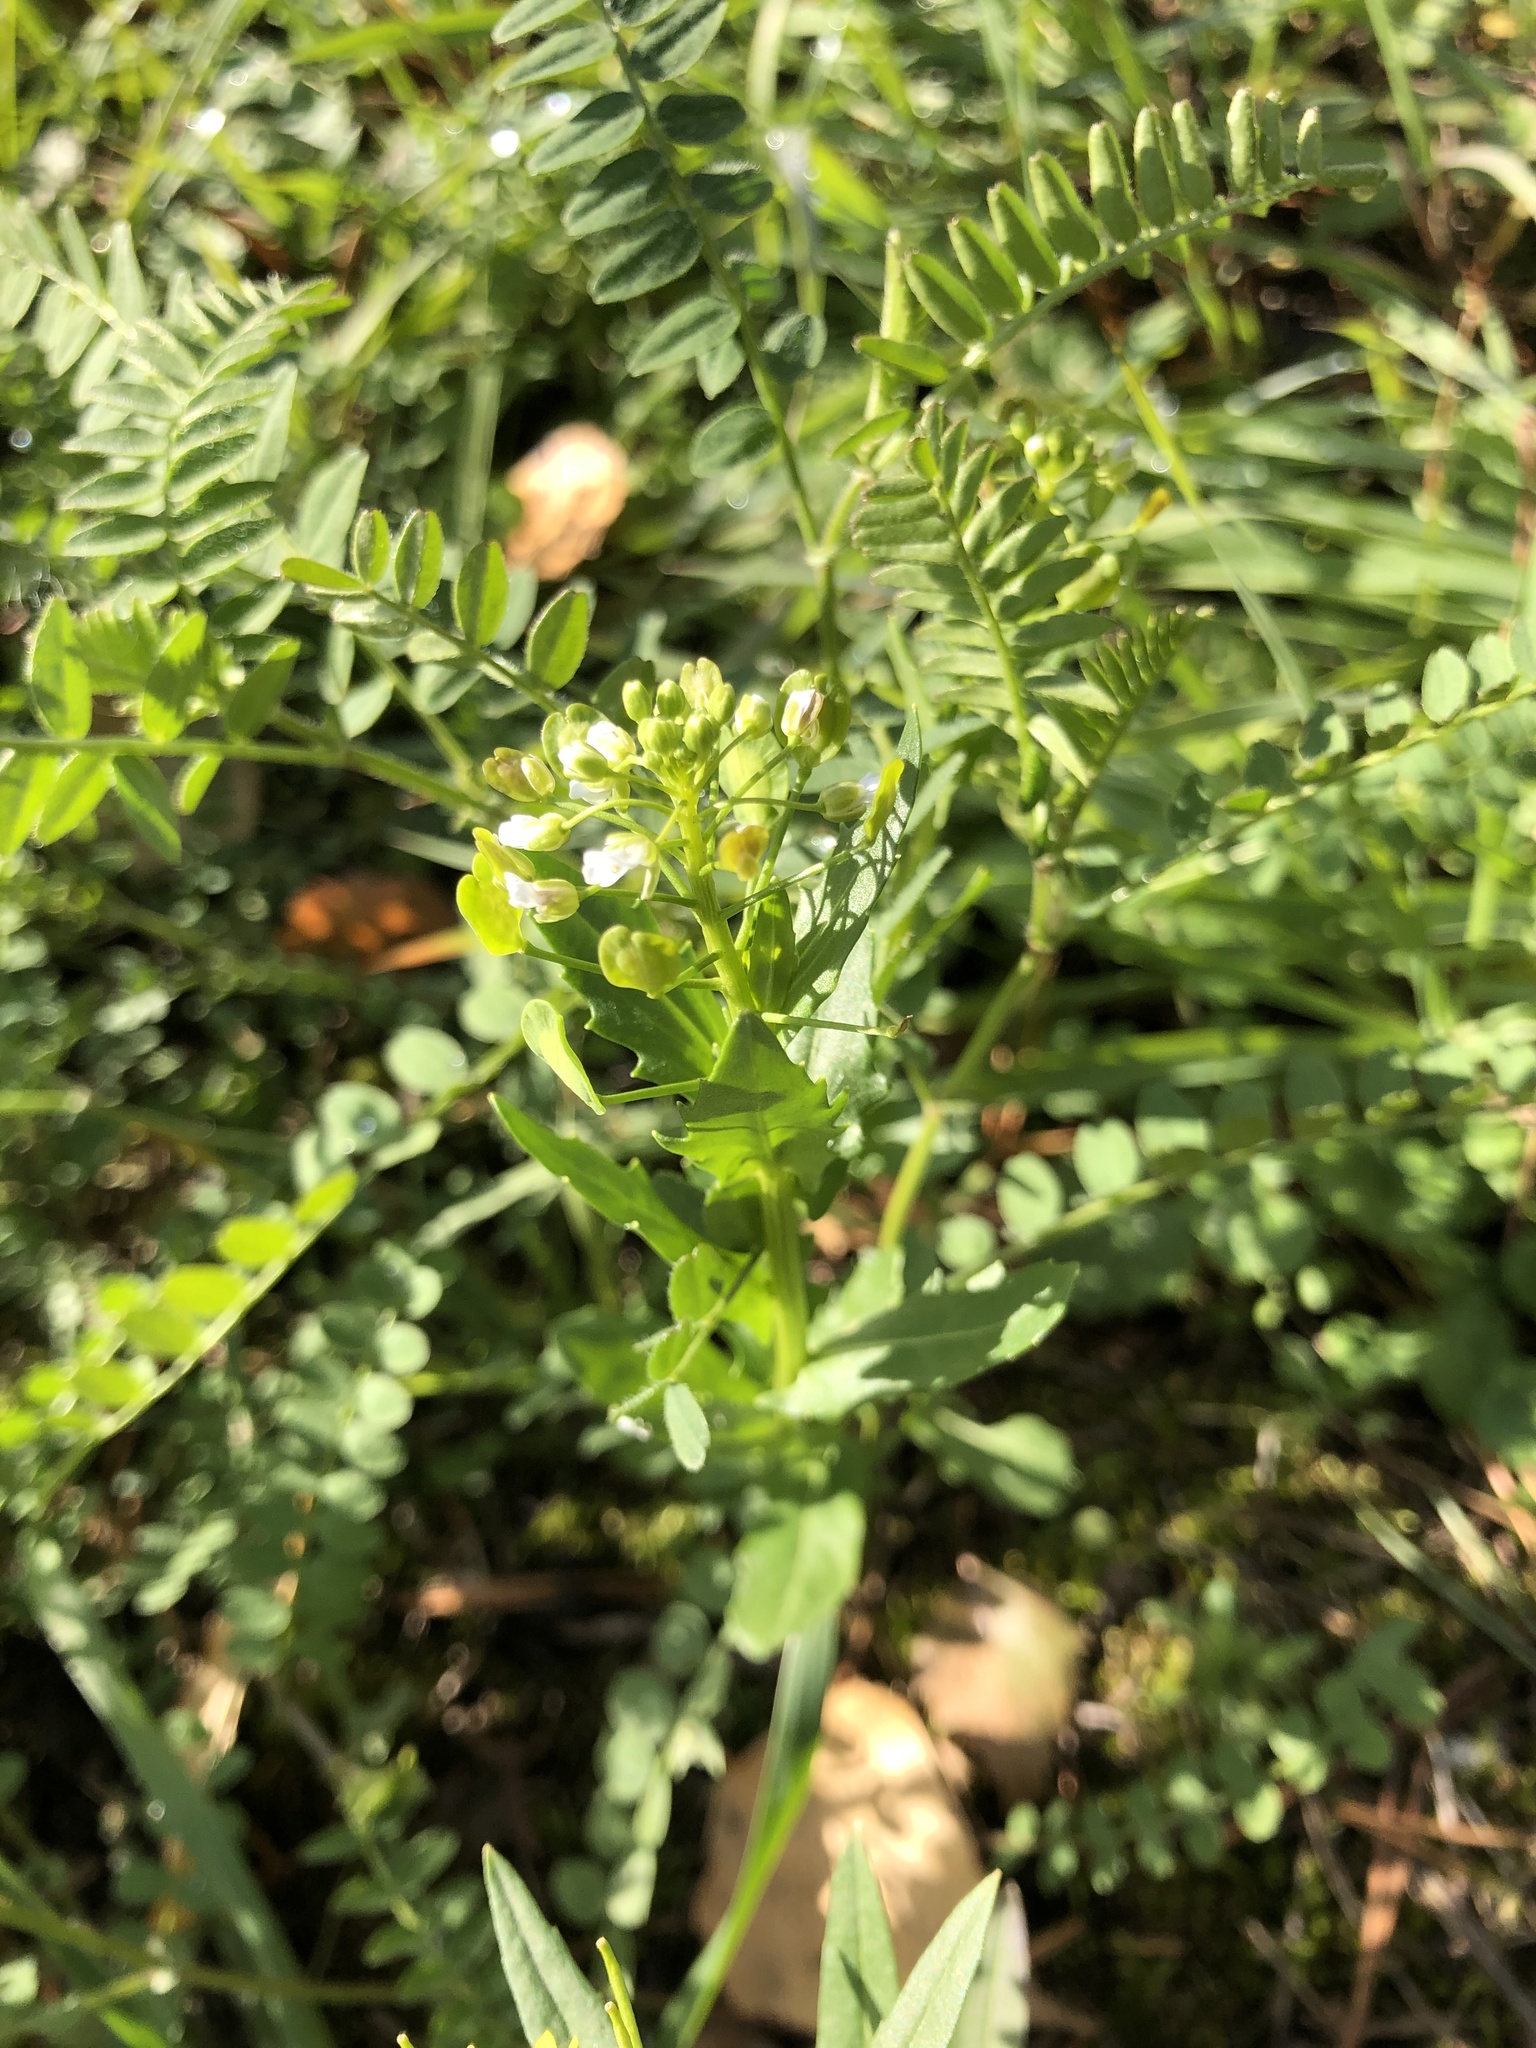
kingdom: Plantae
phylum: Tracheophyta
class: Magnoliopsida
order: Brassicales
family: Brassicaceae
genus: Thlaspi
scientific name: Thlaspi arvense
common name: Field pennycress
